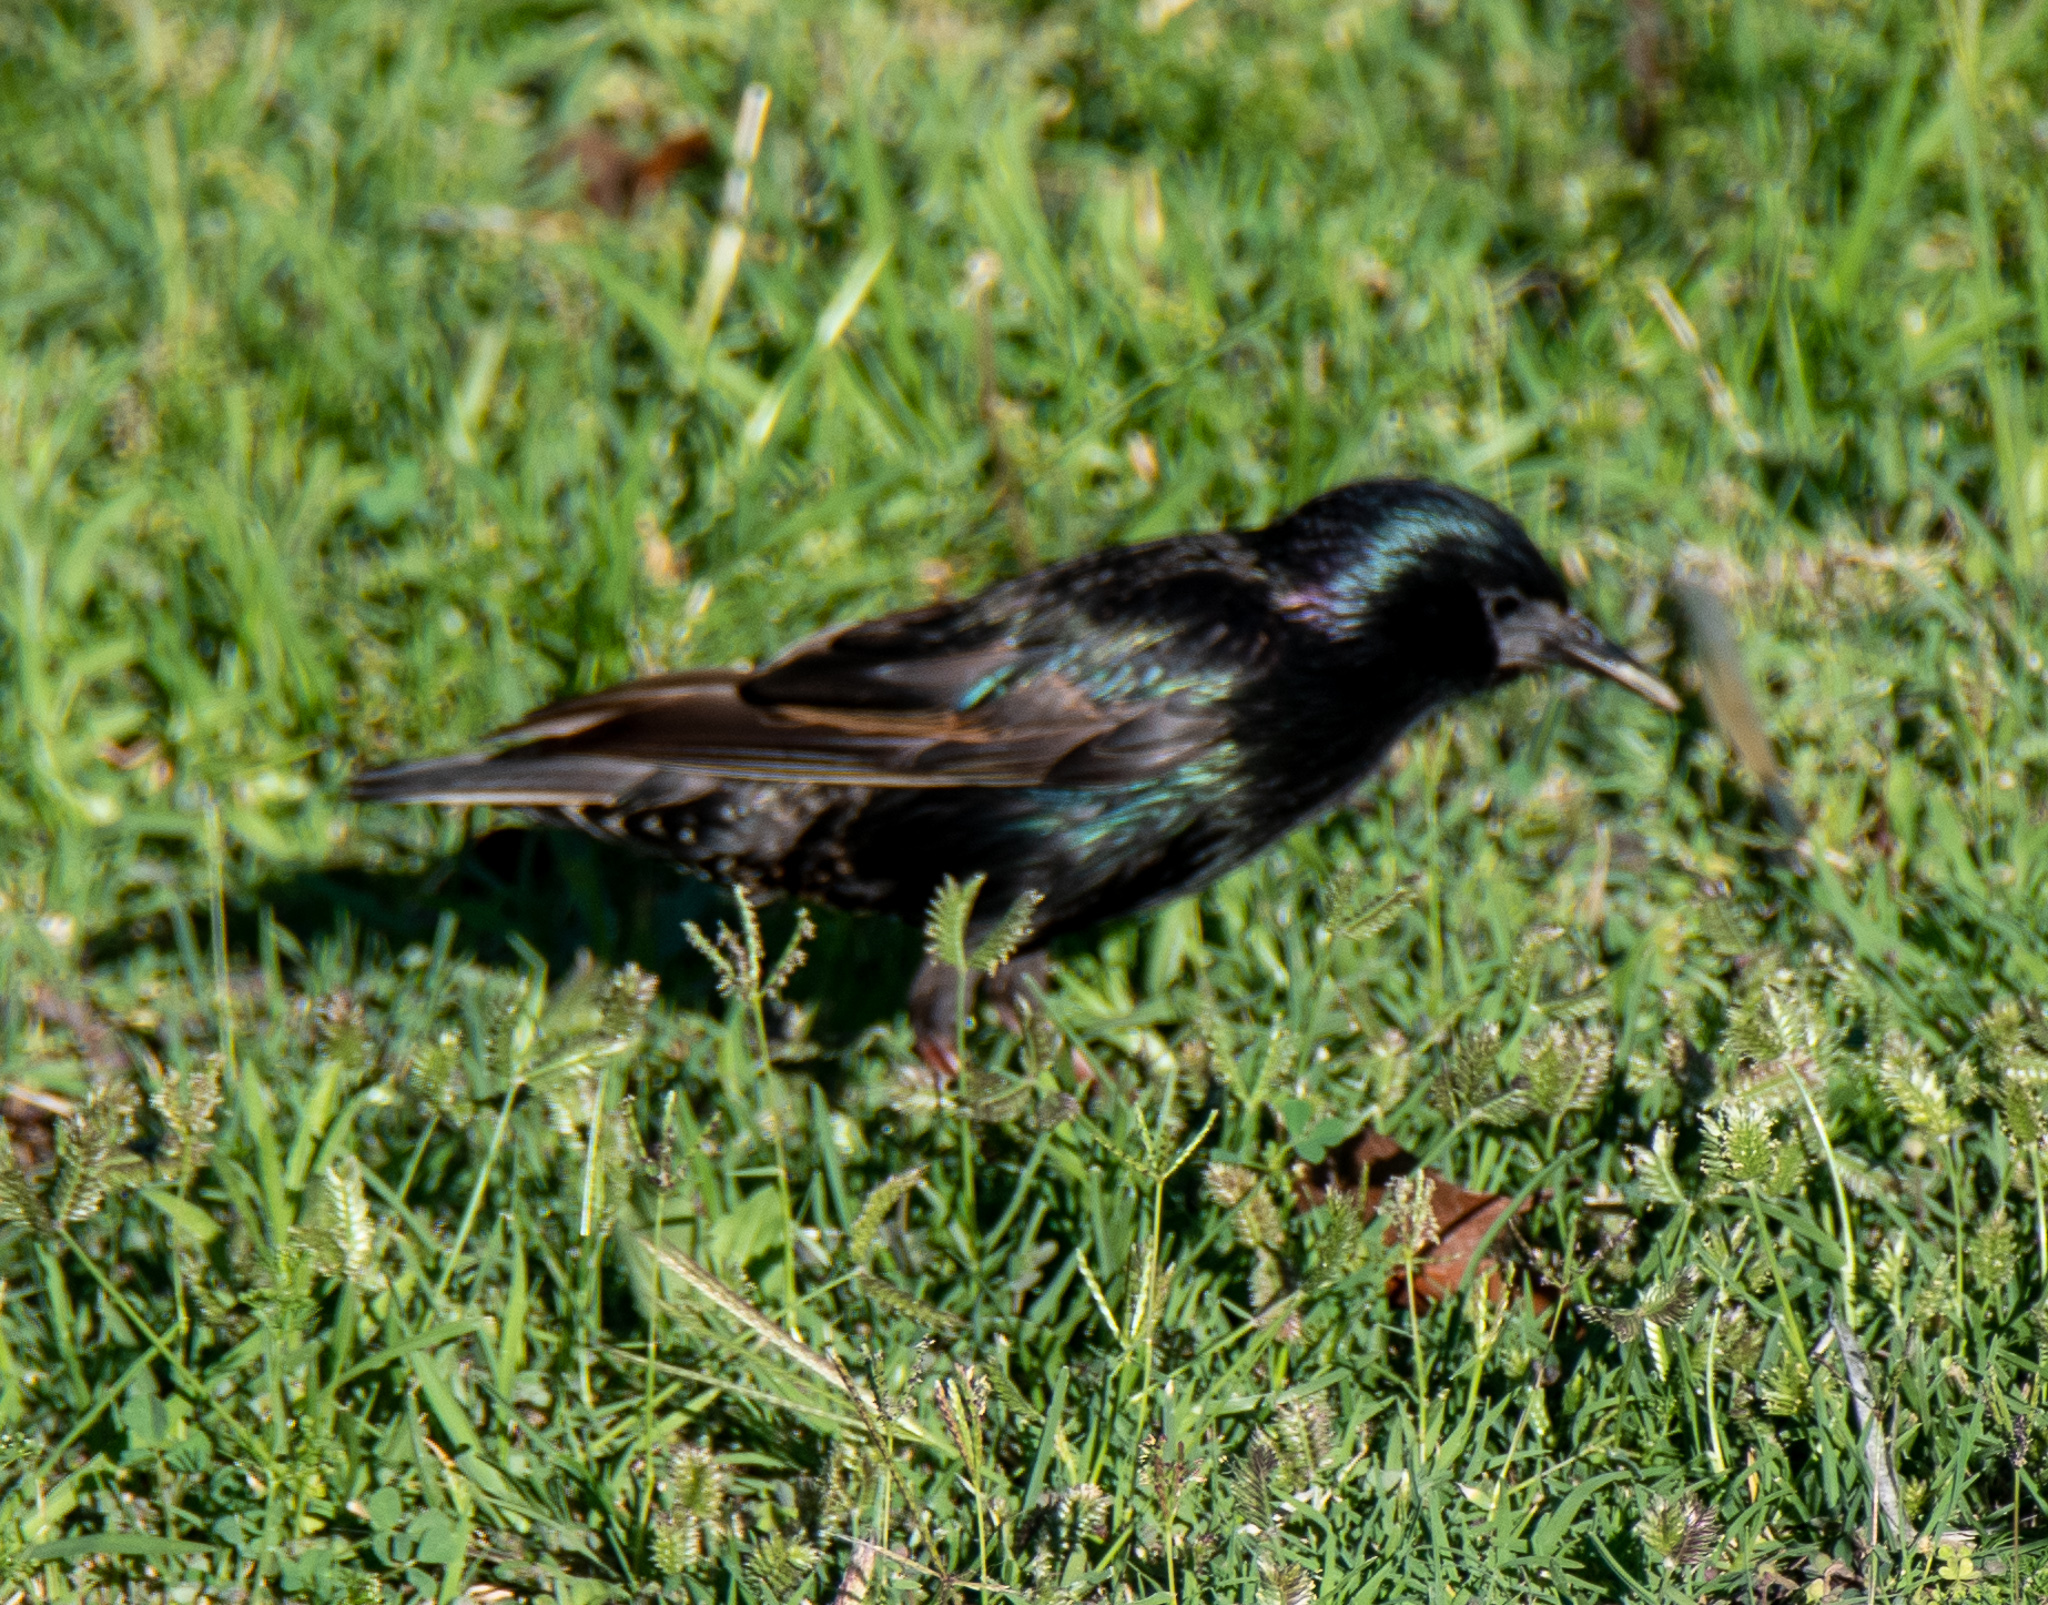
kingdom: Animalia
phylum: Chordata
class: Aves
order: Passeriformes
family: Sturnidae
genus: Sturnus
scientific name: Sturnus vulgaris
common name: Common starling
